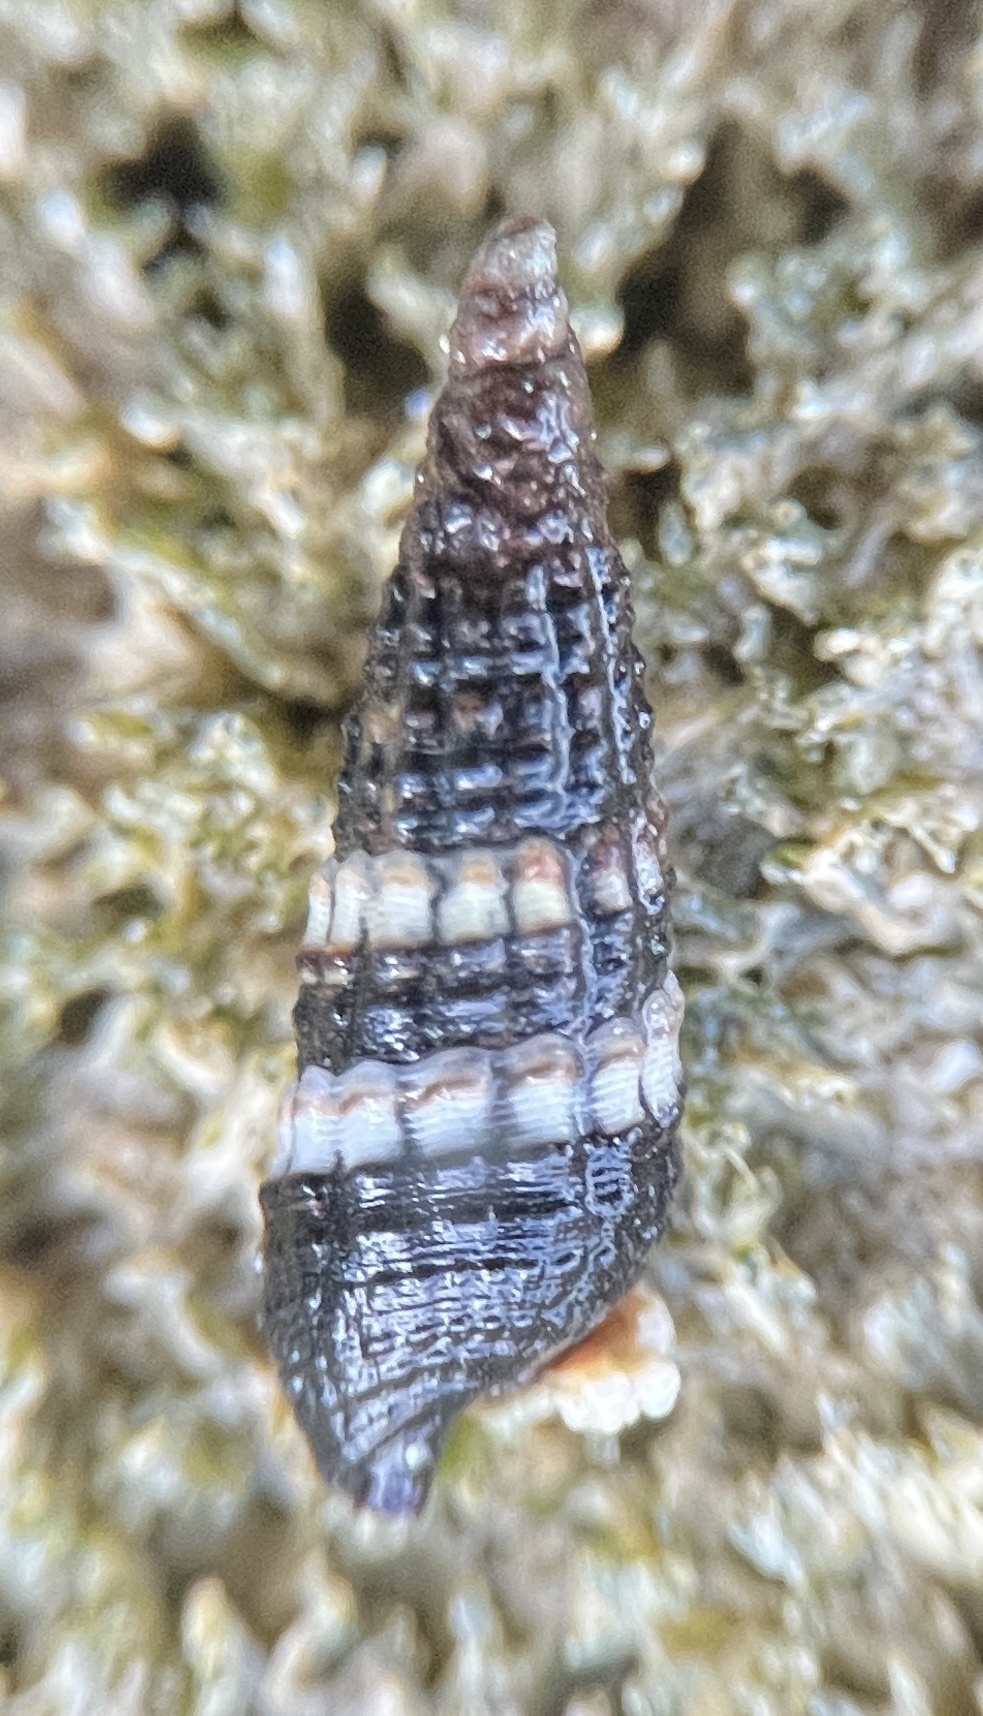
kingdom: Animalia
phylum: Mollusca
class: Gastropoda
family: Batillariidae
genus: Lampanella
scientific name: Lampanella minima
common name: West indian false cerith
